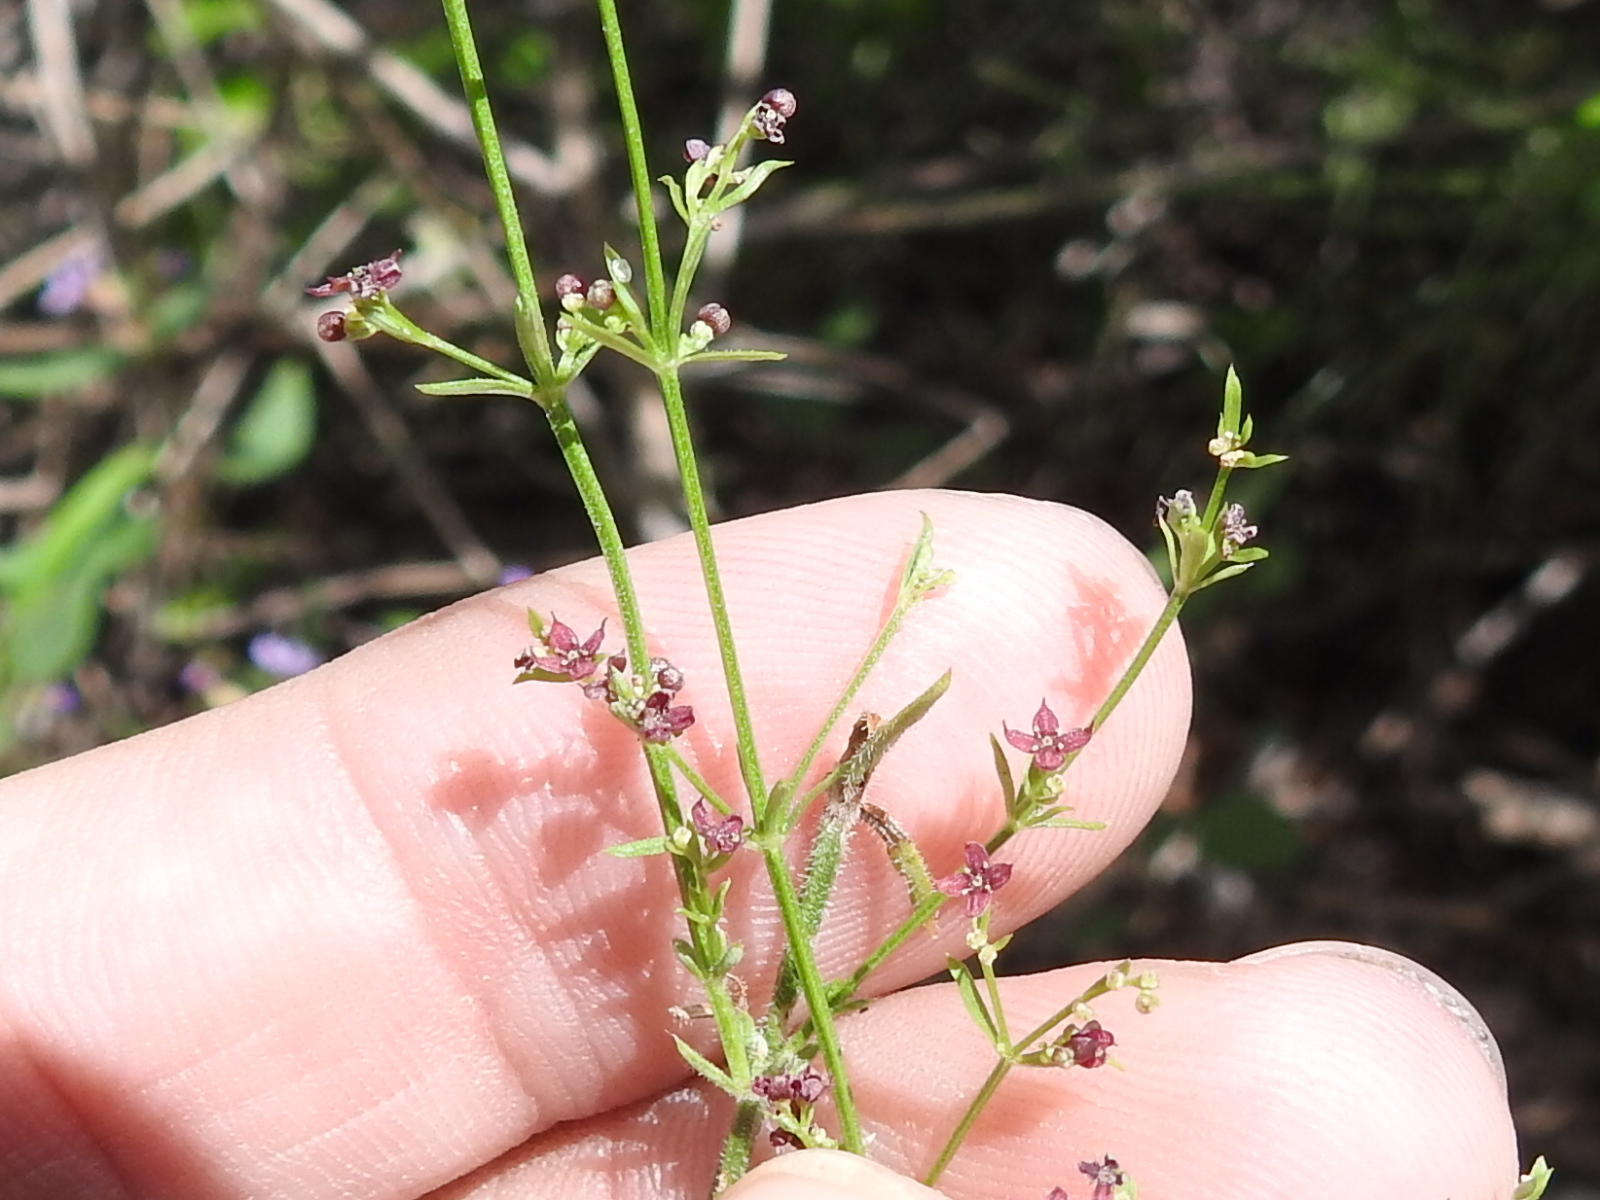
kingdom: Plantae
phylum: Tracheophyta
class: Magnoliopsida
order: Gentianales
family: Rubiaceae
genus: Galium
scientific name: Galium wrightii
